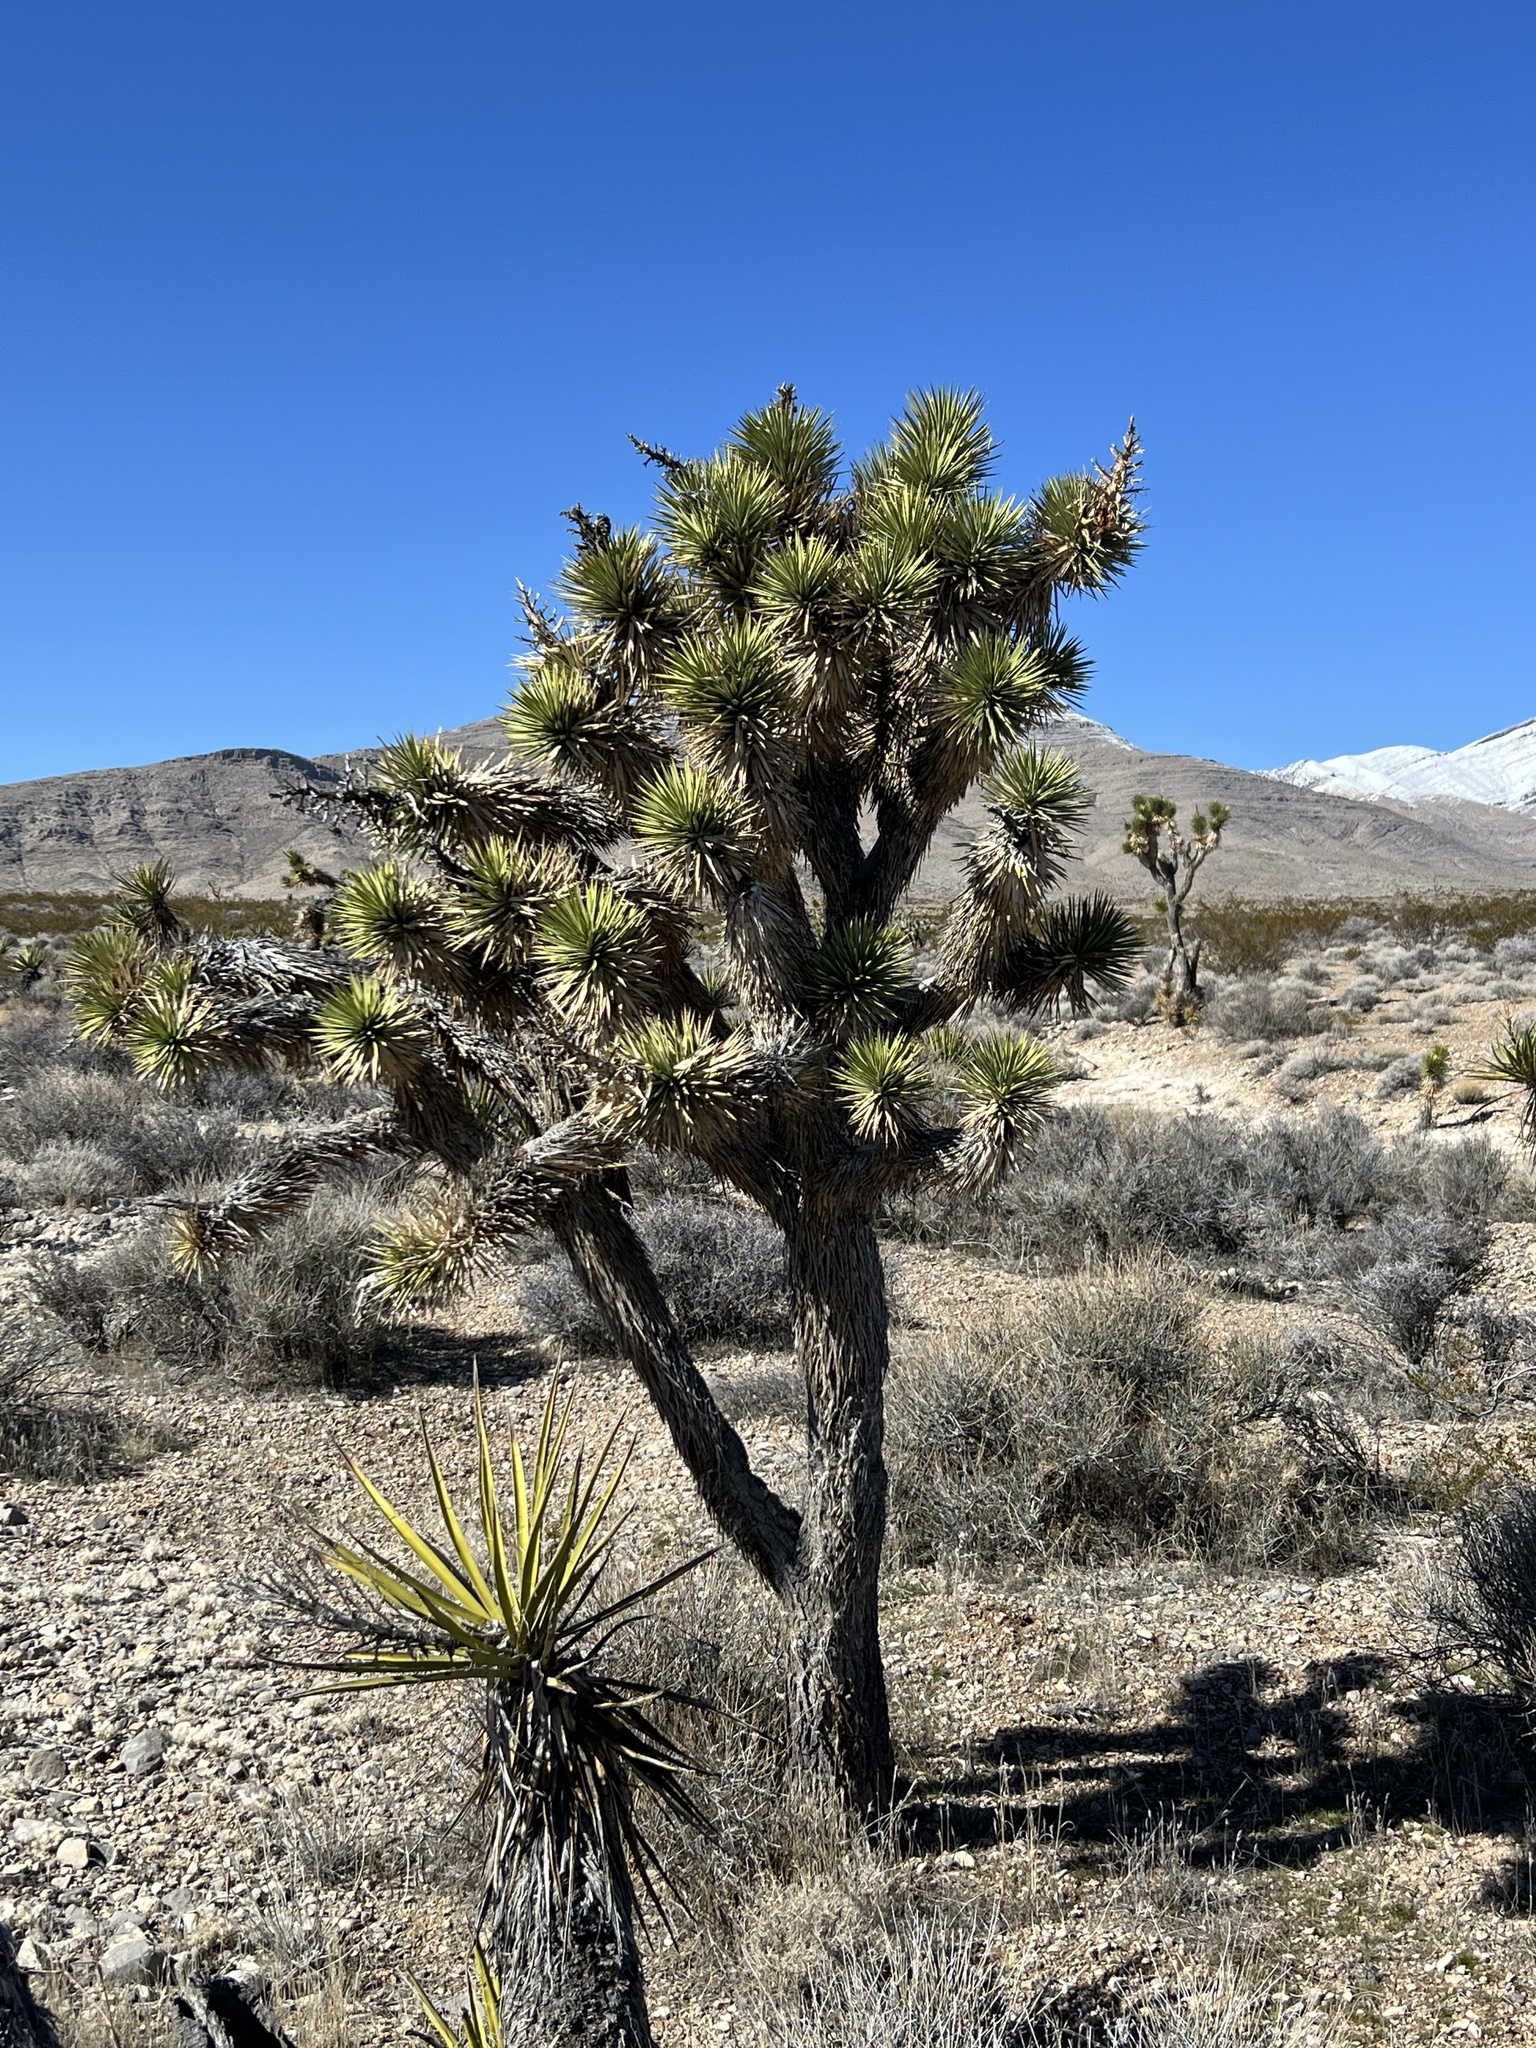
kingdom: Plantae
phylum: Tracheophyta
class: Liliopsida
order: Asparagales
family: Asparagaceae
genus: Yucca
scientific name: Yucca brevifolia
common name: Joshua tree
